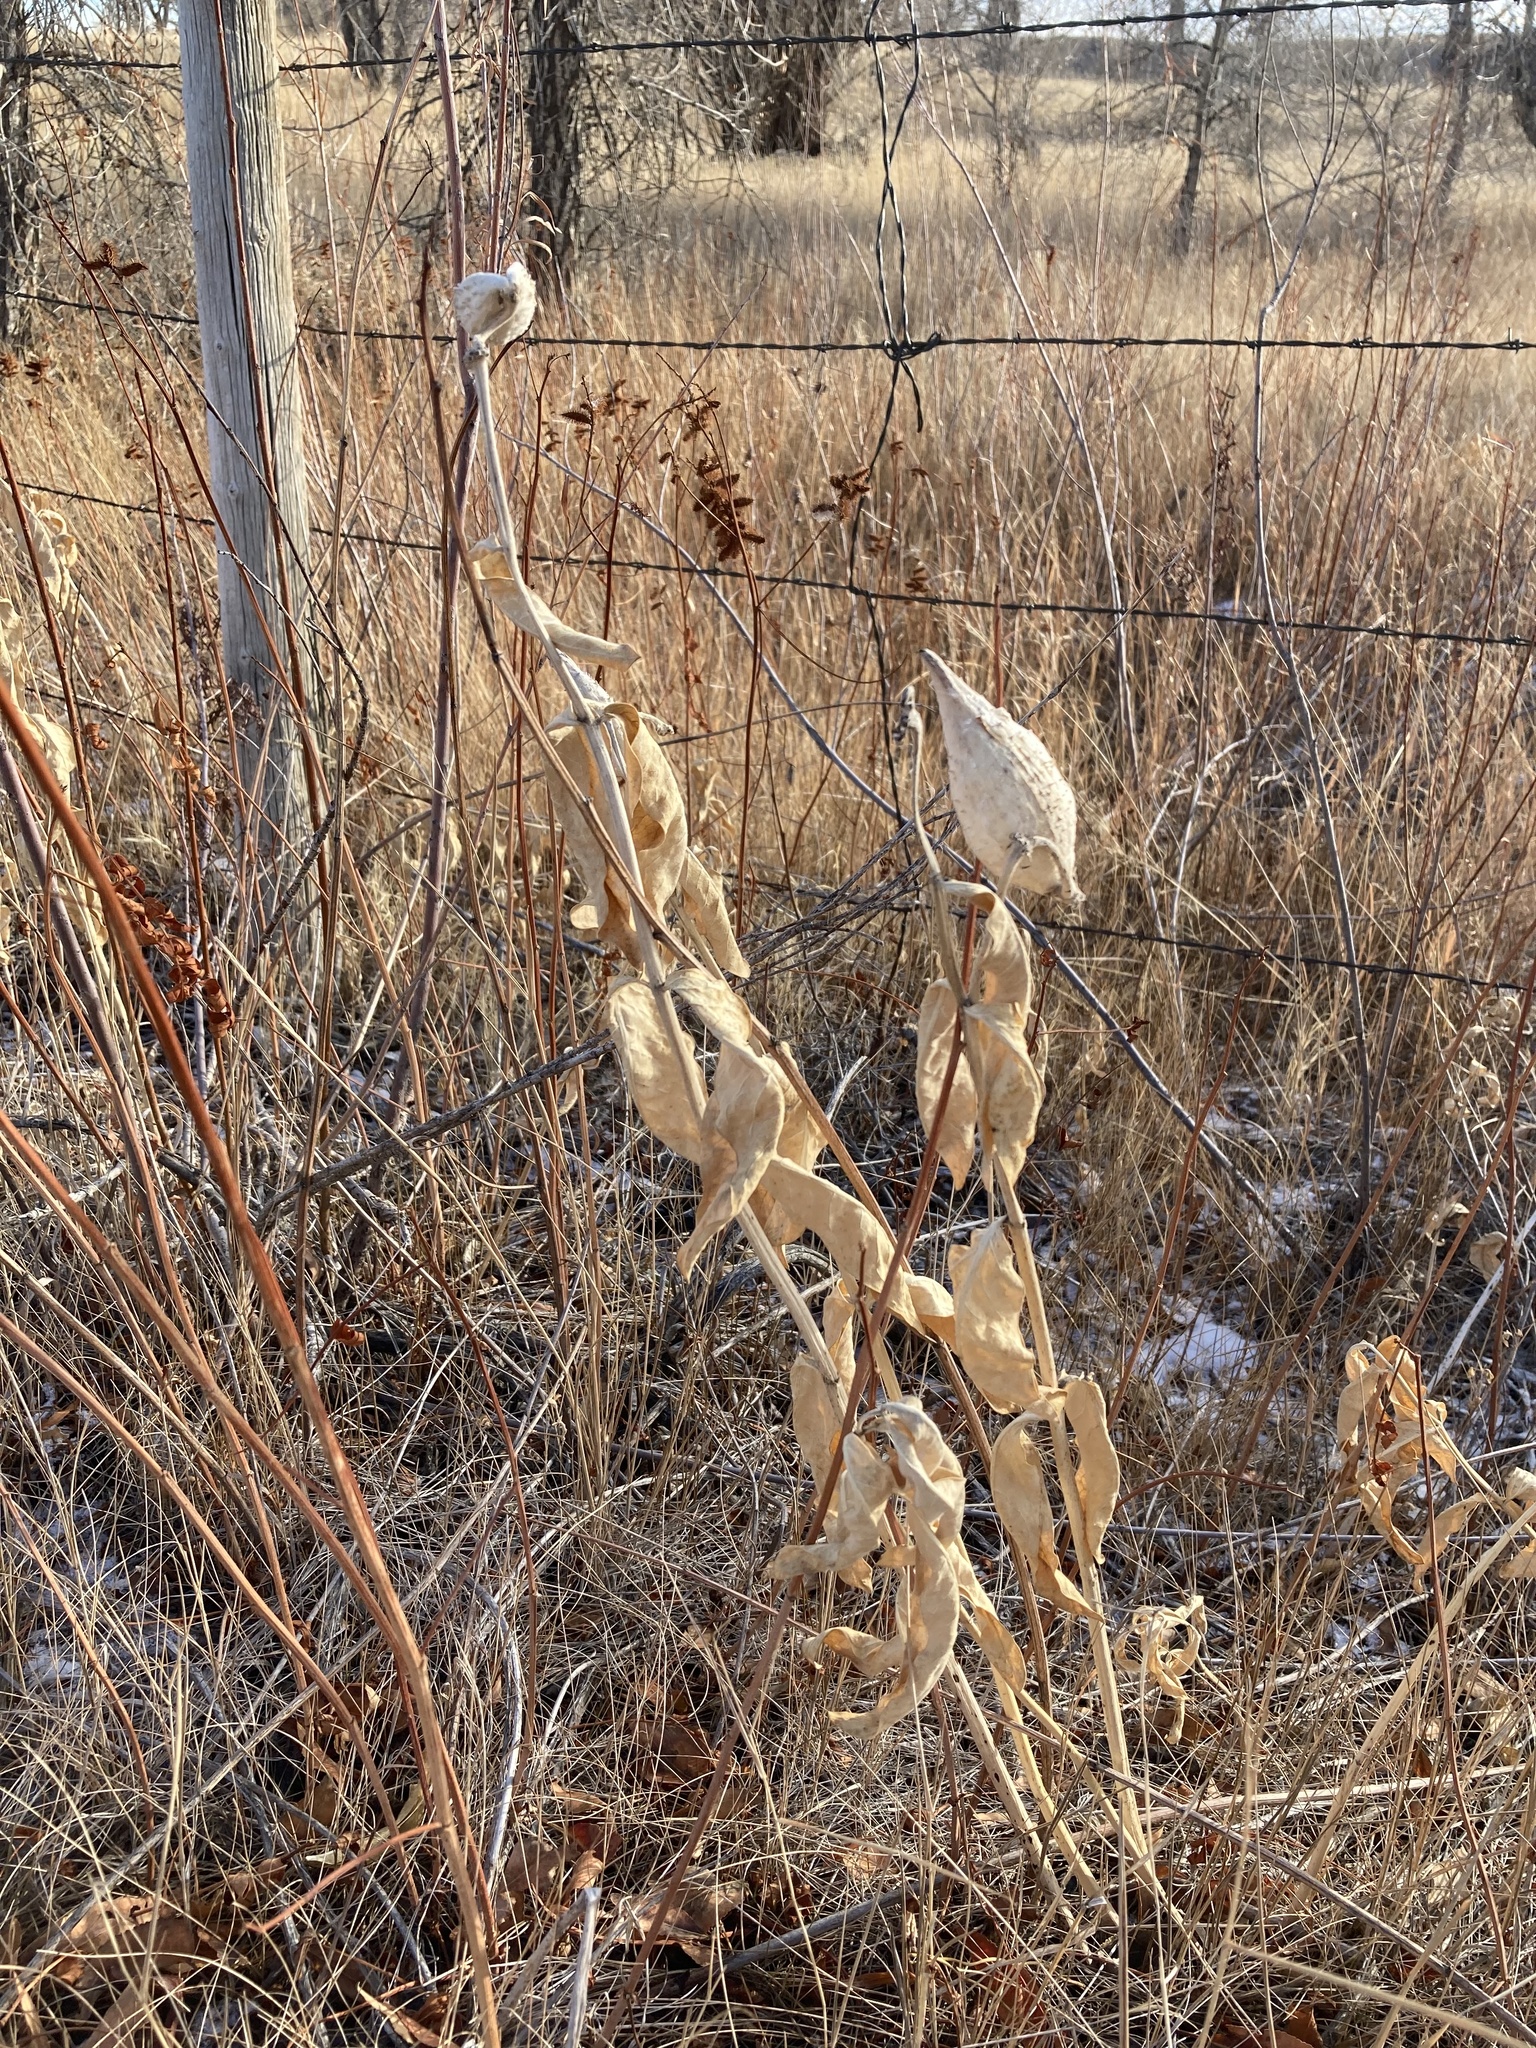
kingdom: Plantae
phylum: Tracheophyta
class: Magnoliopsida
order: Gentianales
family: Apocynaceae
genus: Asclepias
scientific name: Asclepias speciosa
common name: Showy milkweed
